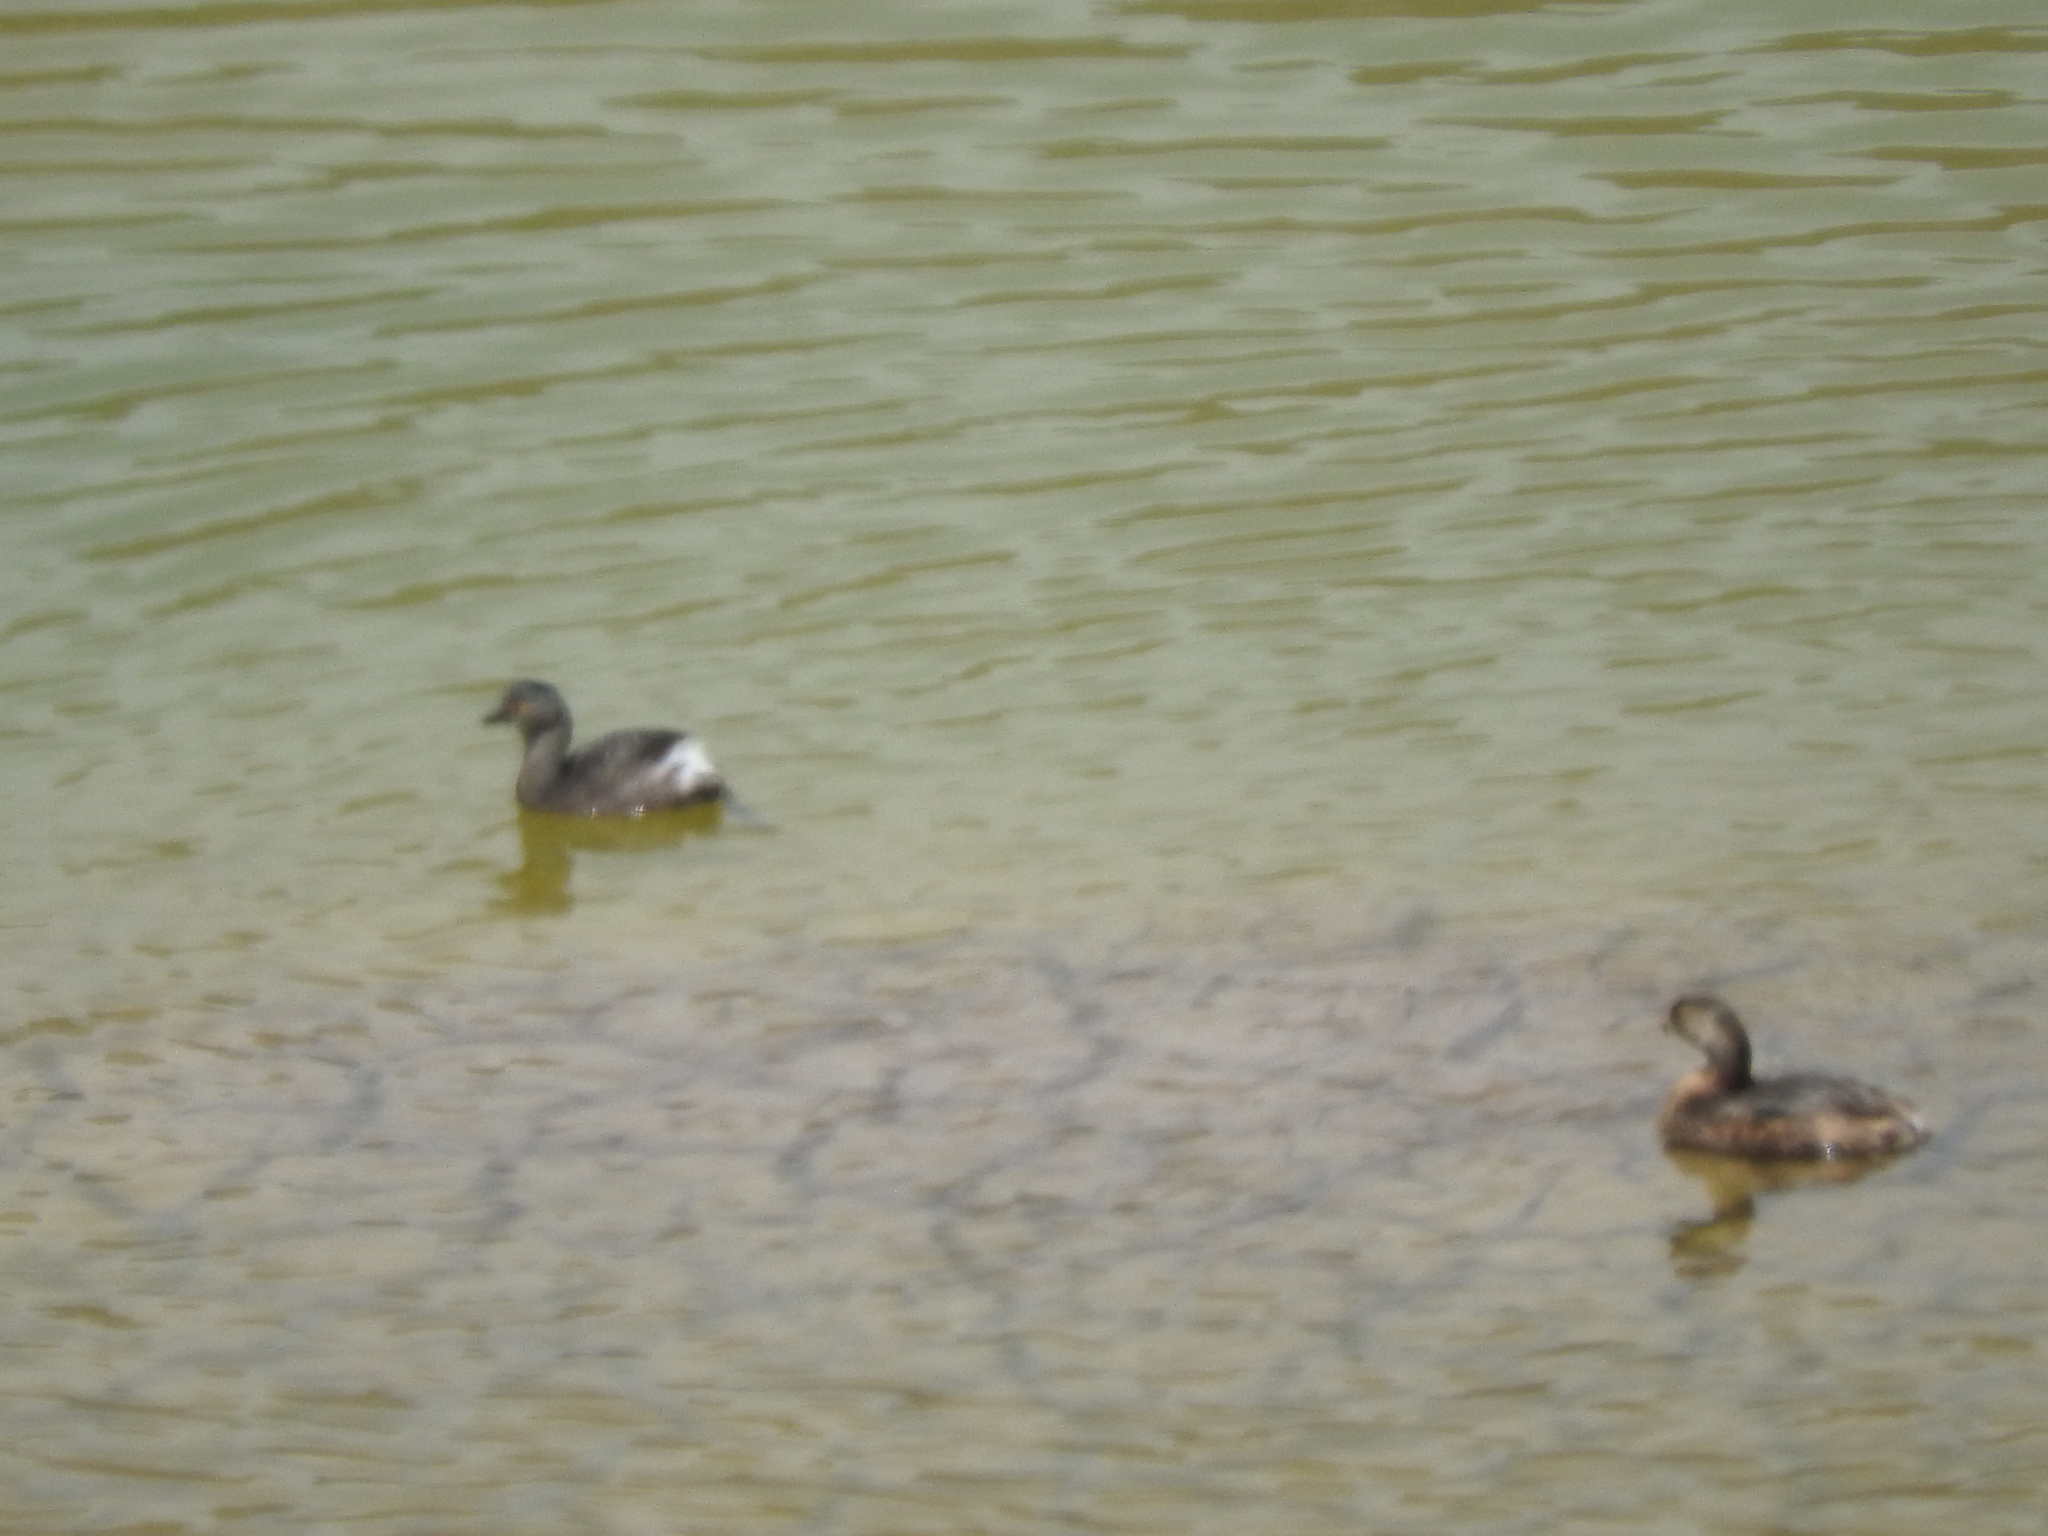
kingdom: Animalia
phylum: Chordata
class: Aves
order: Podicipediformes
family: Podicipedidae
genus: Tachybaptus
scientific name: Tachybaptus dominicus
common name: Least grebe
